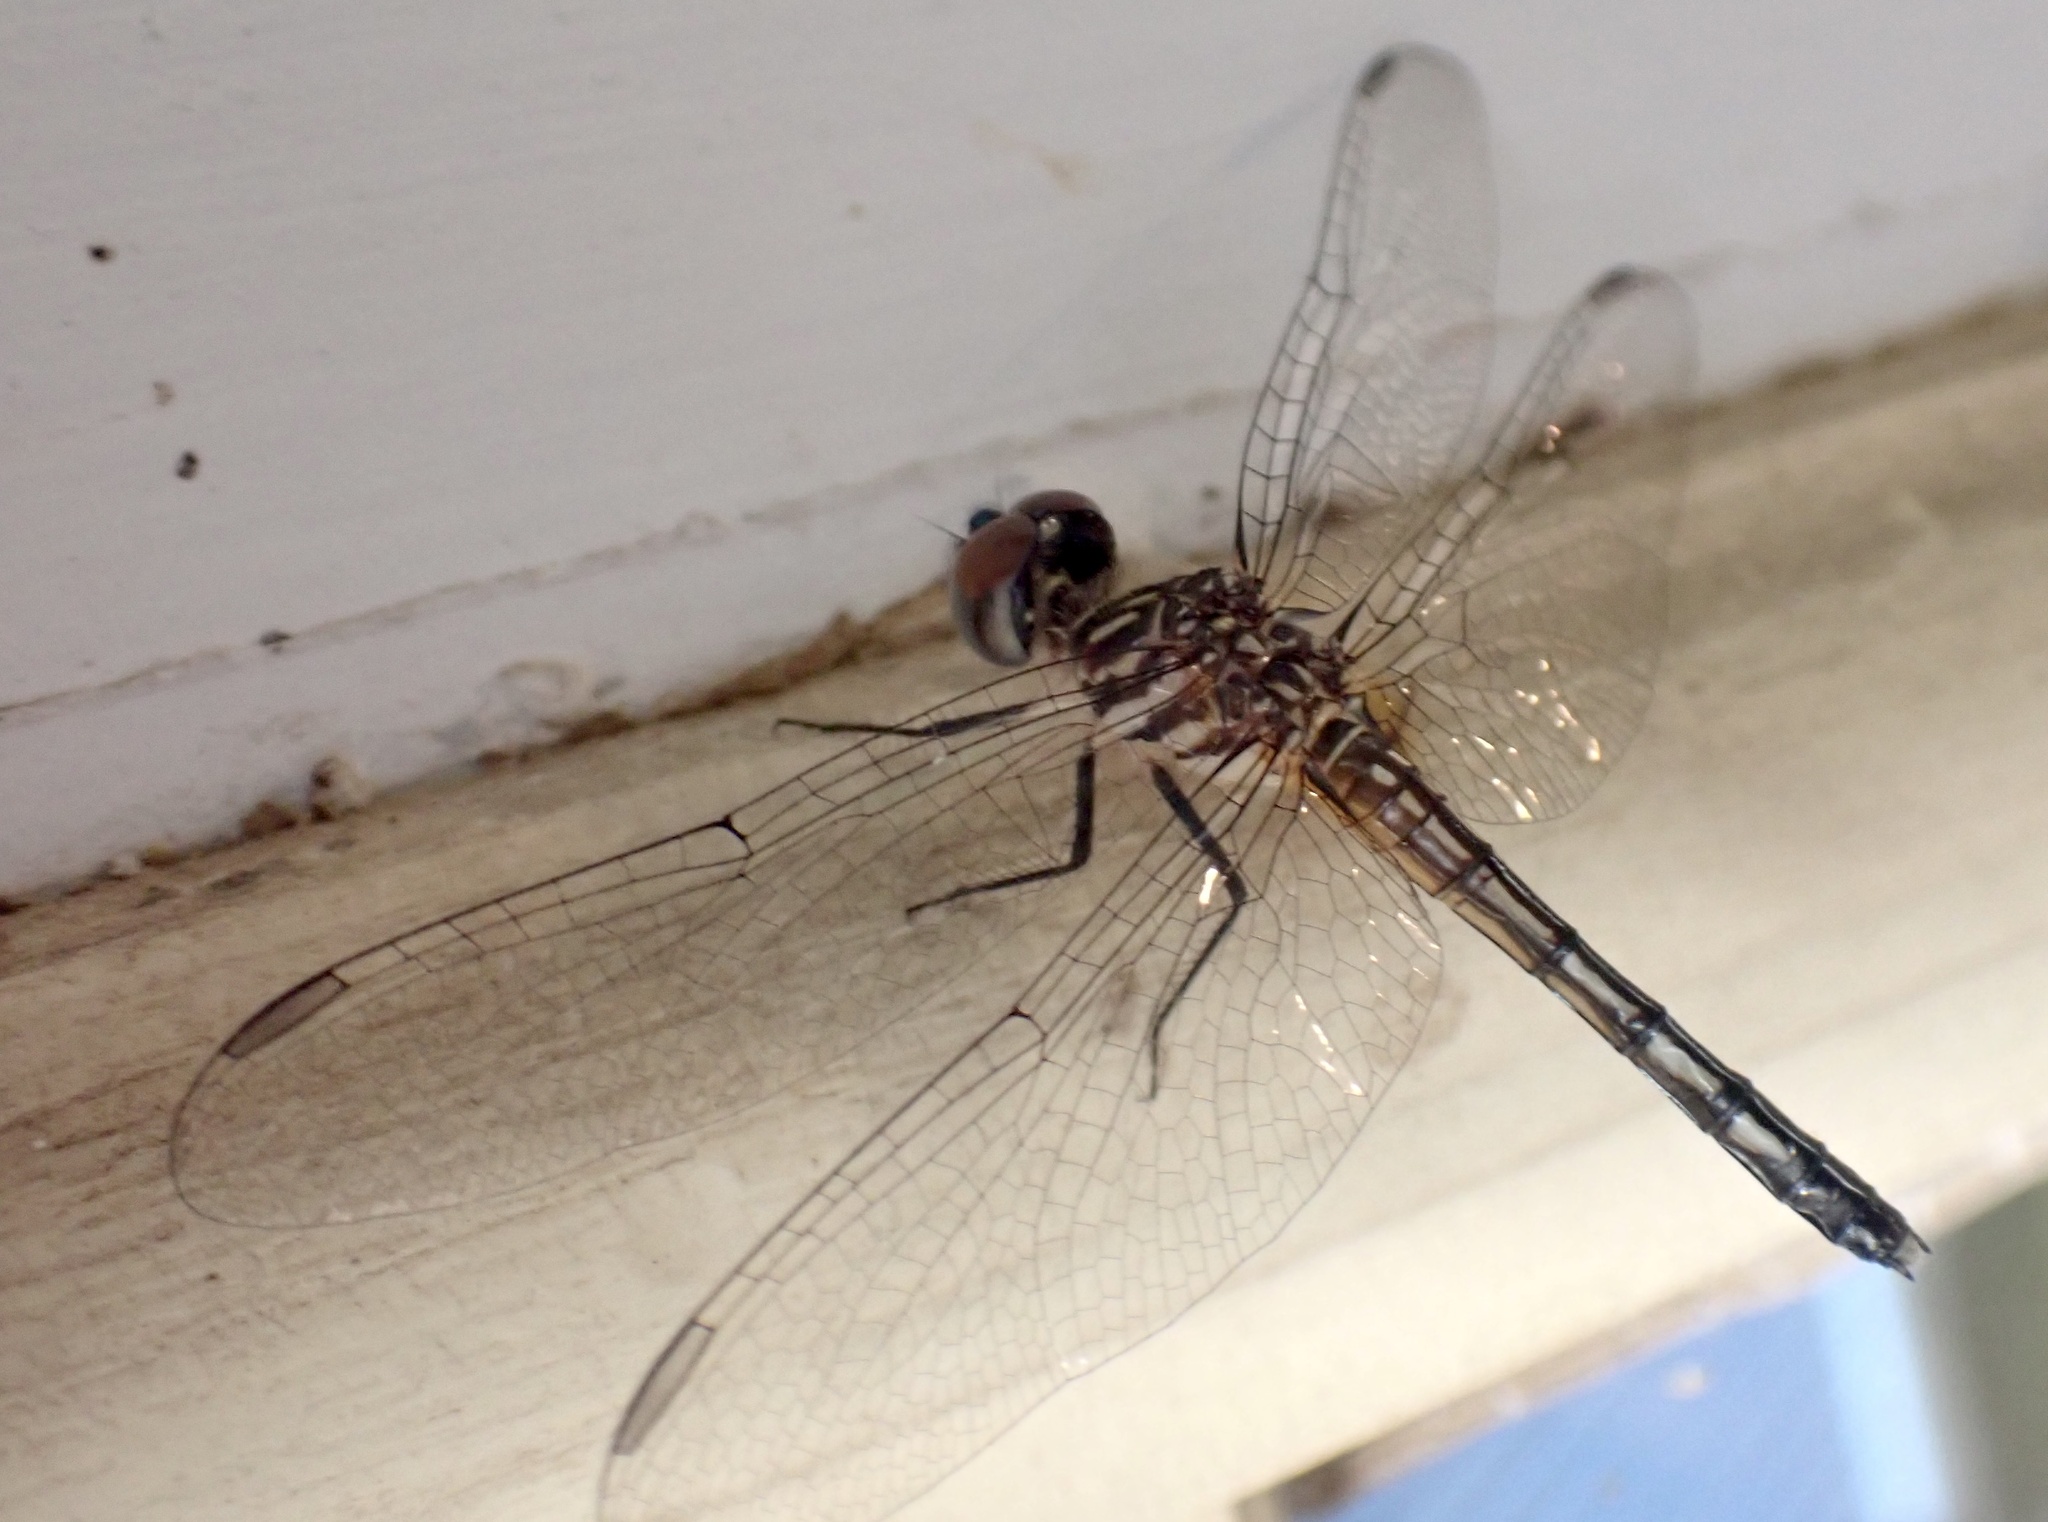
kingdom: Animalia
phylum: Arthropoda
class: Insecta
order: Odonata
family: Libellulidae
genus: Pachydiplax
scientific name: Pachydiplax longipennis
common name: Blue dasher
